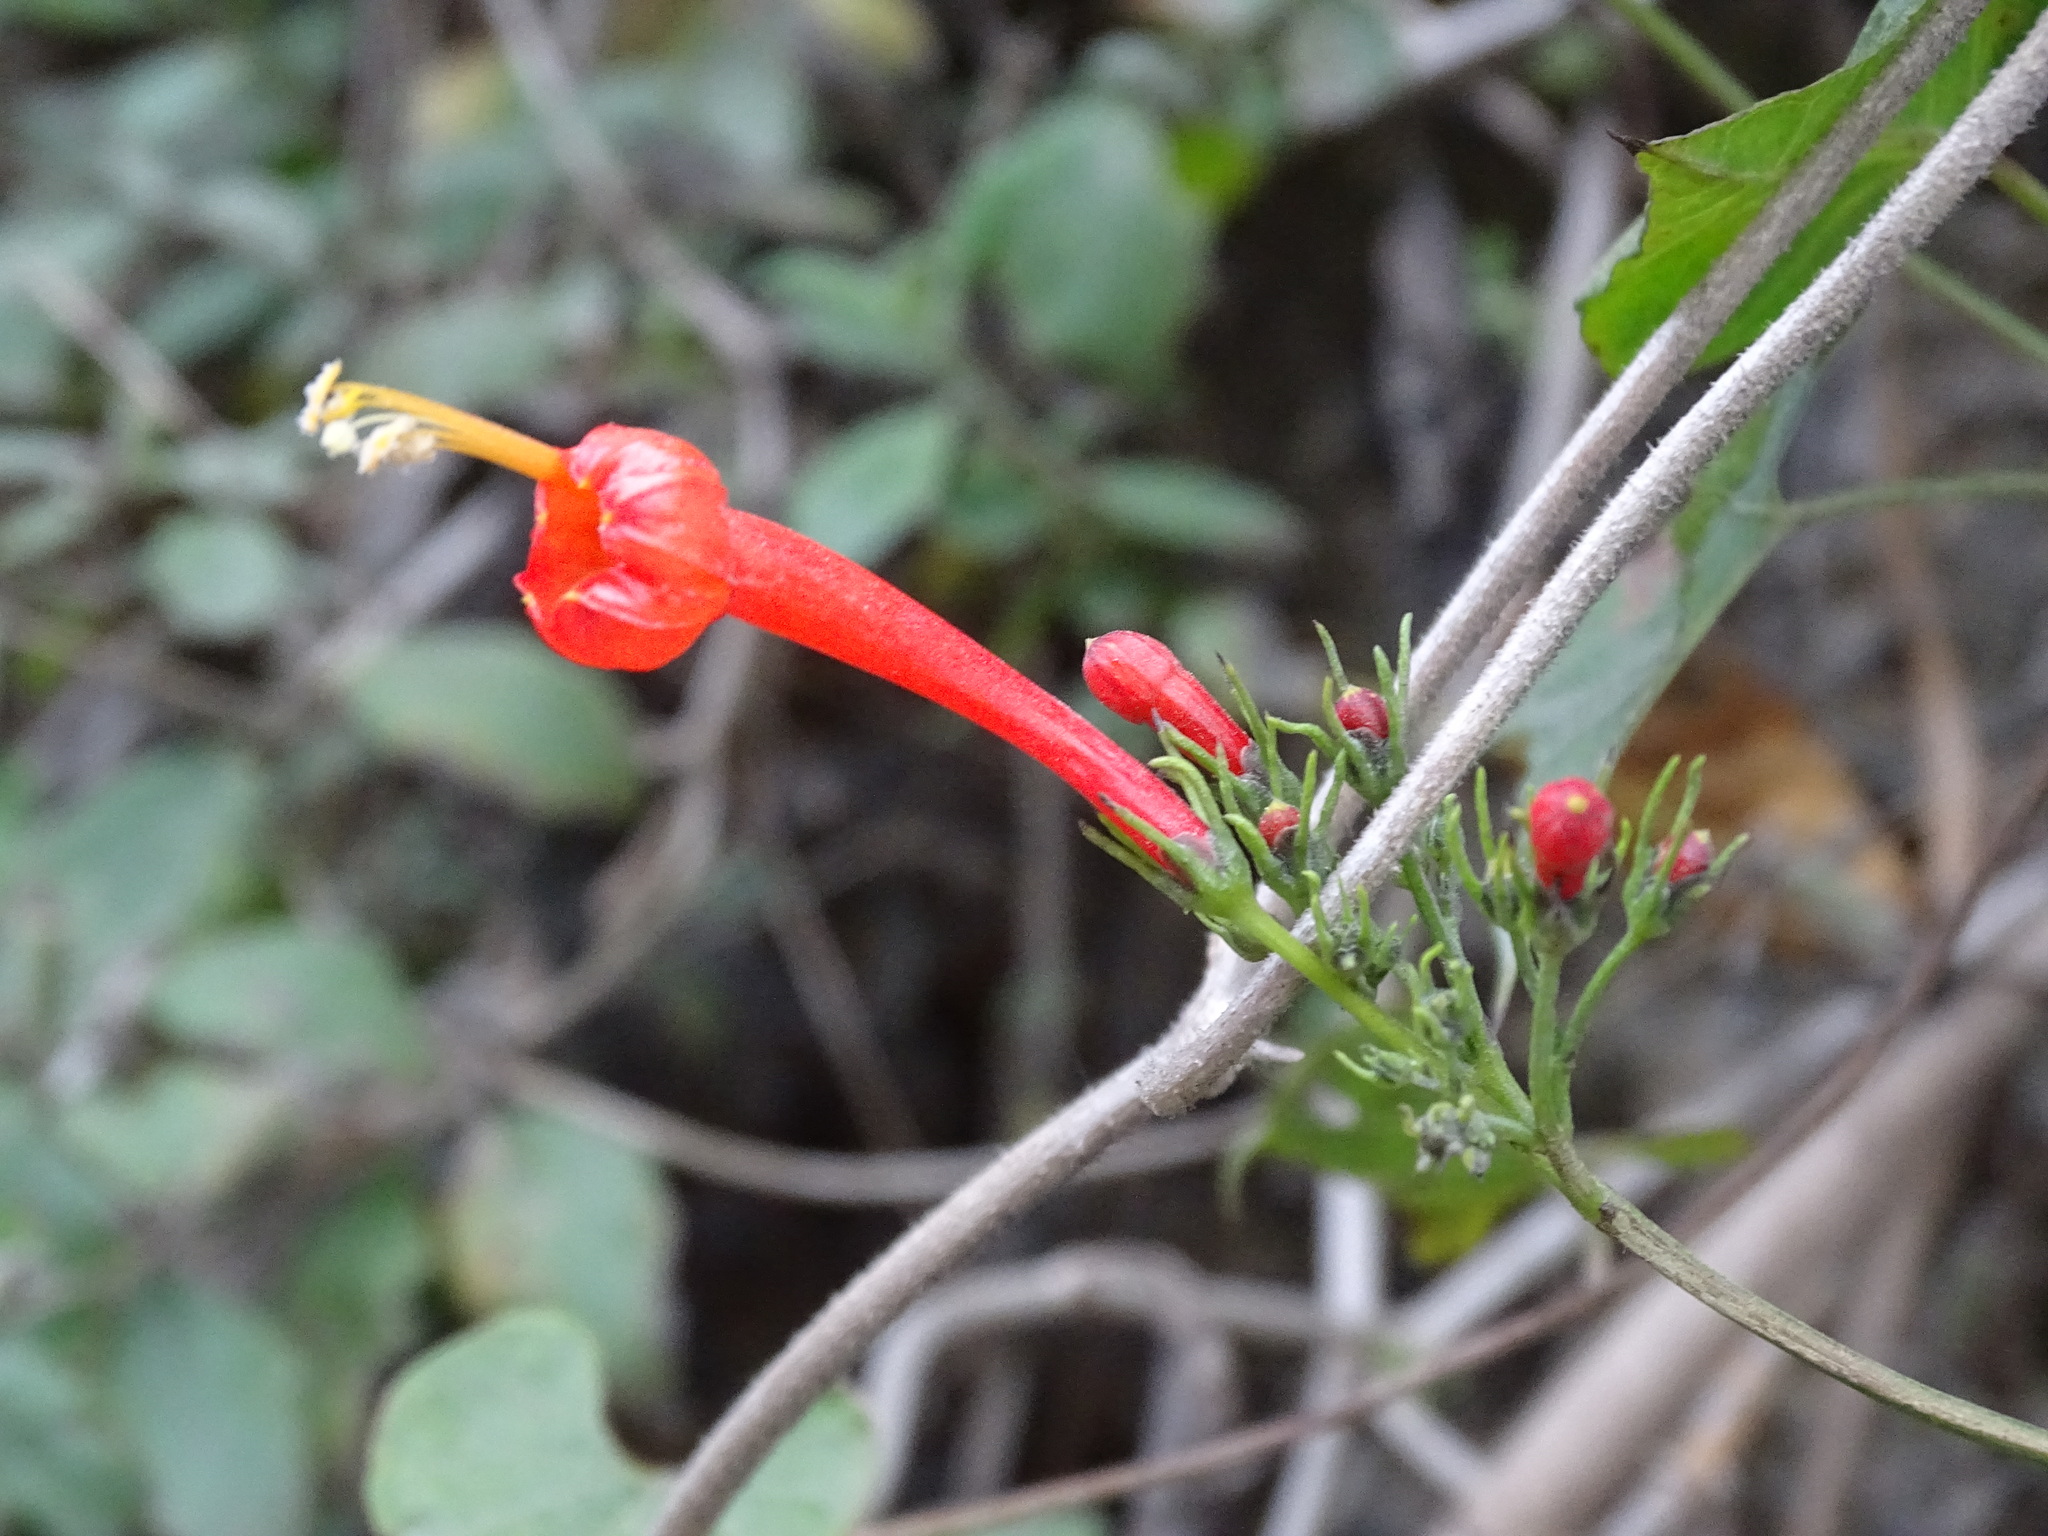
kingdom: Plantae
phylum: Tracheophyta
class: Magnoliopsida
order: Solanales
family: Convolvulaceae
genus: Ipomoea
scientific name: Ipomoea hastigera
